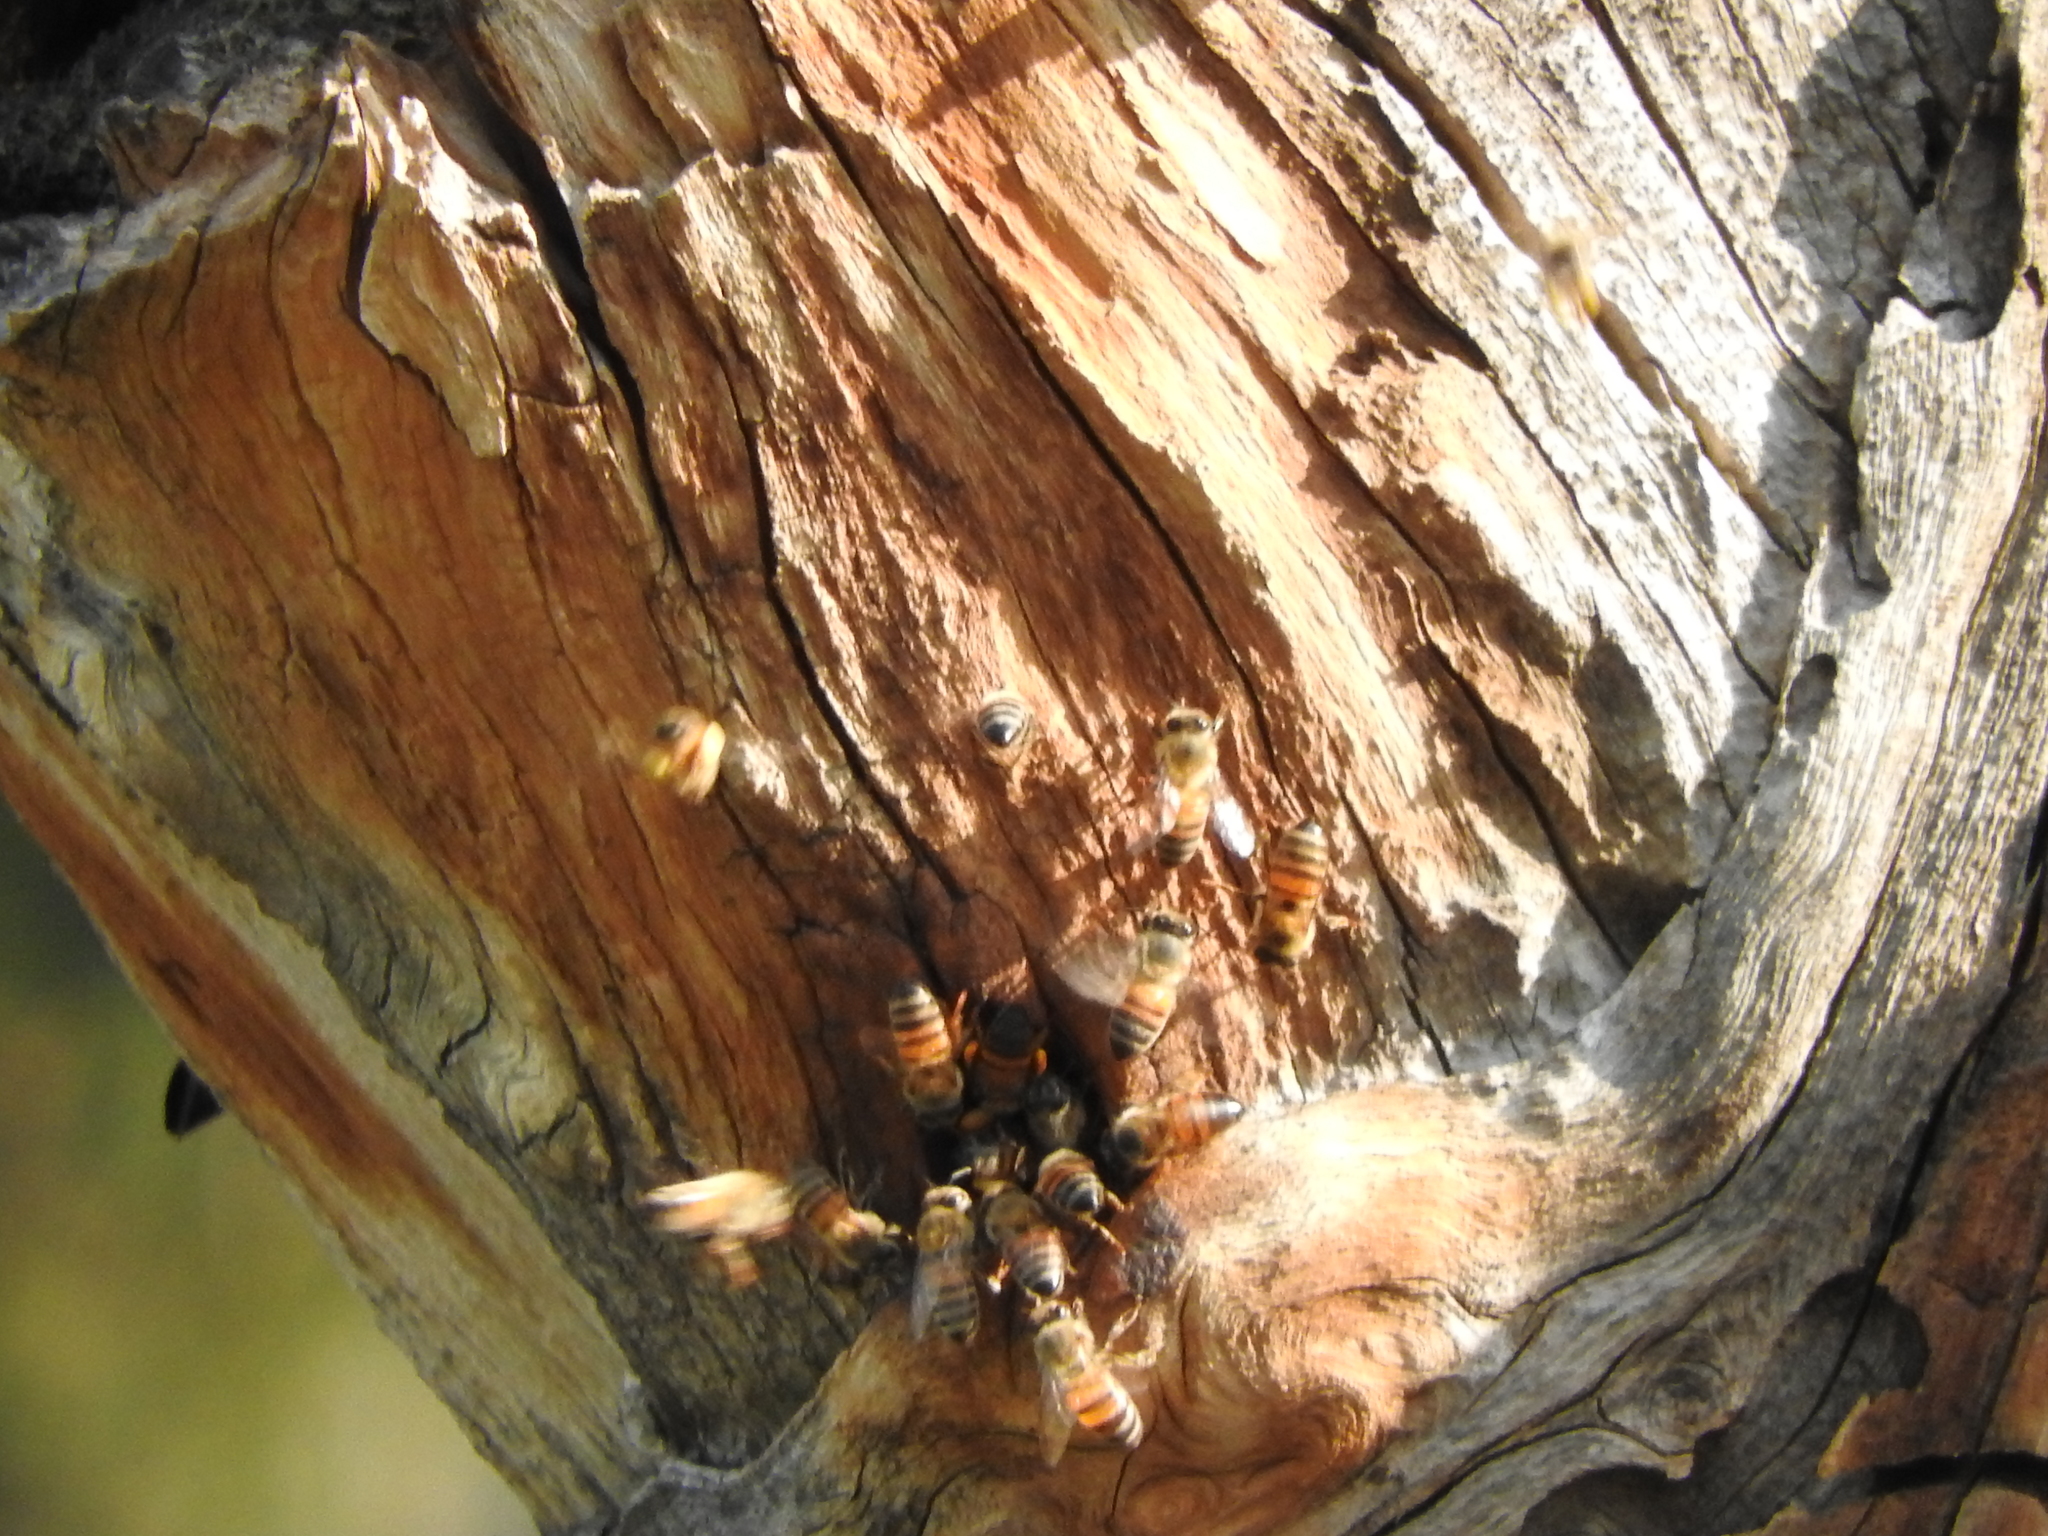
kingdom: Animalia
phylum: Arthropoda
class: Insecta
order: Hymenoptera
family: Apidae
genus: Apis
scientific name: Apis mellifera
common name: Honey bee
